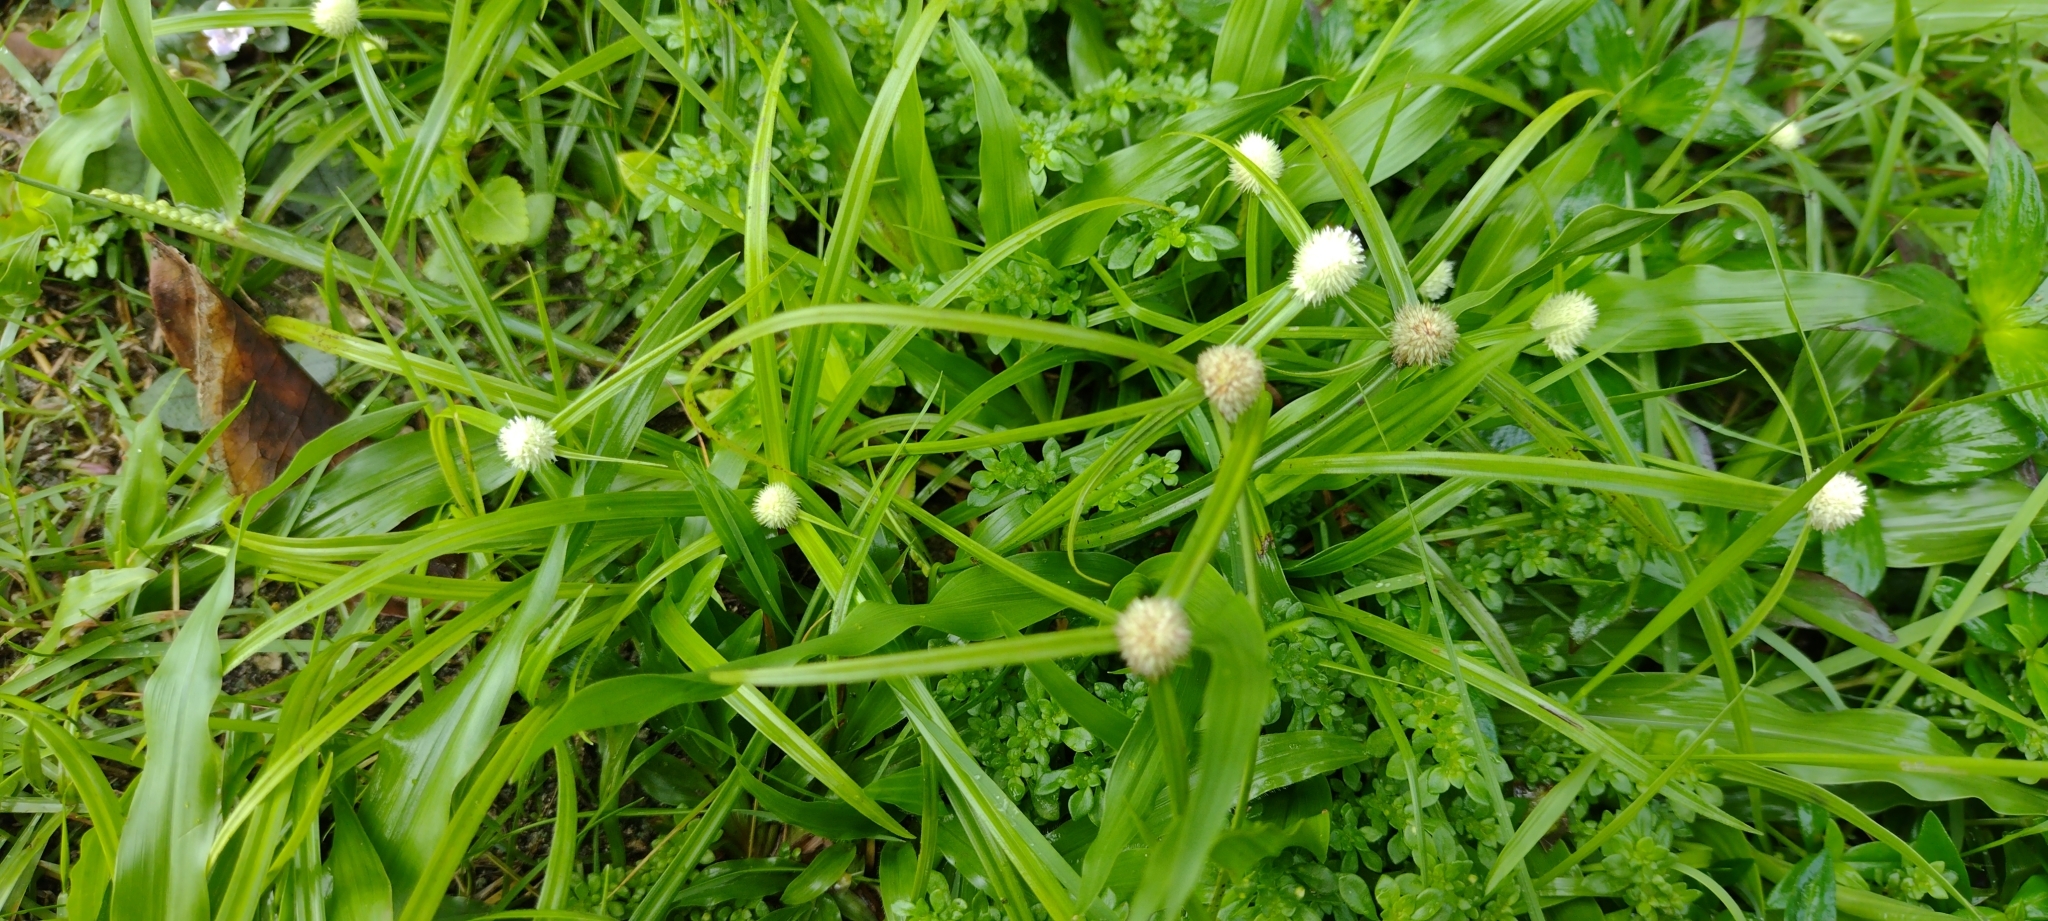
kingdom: Plantae
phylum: Tracheophyta
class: Liliopsida
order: Poales
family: Cyperaceae
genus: Cyperus
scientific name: Cyperus mindorensis
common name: Flatsedge
